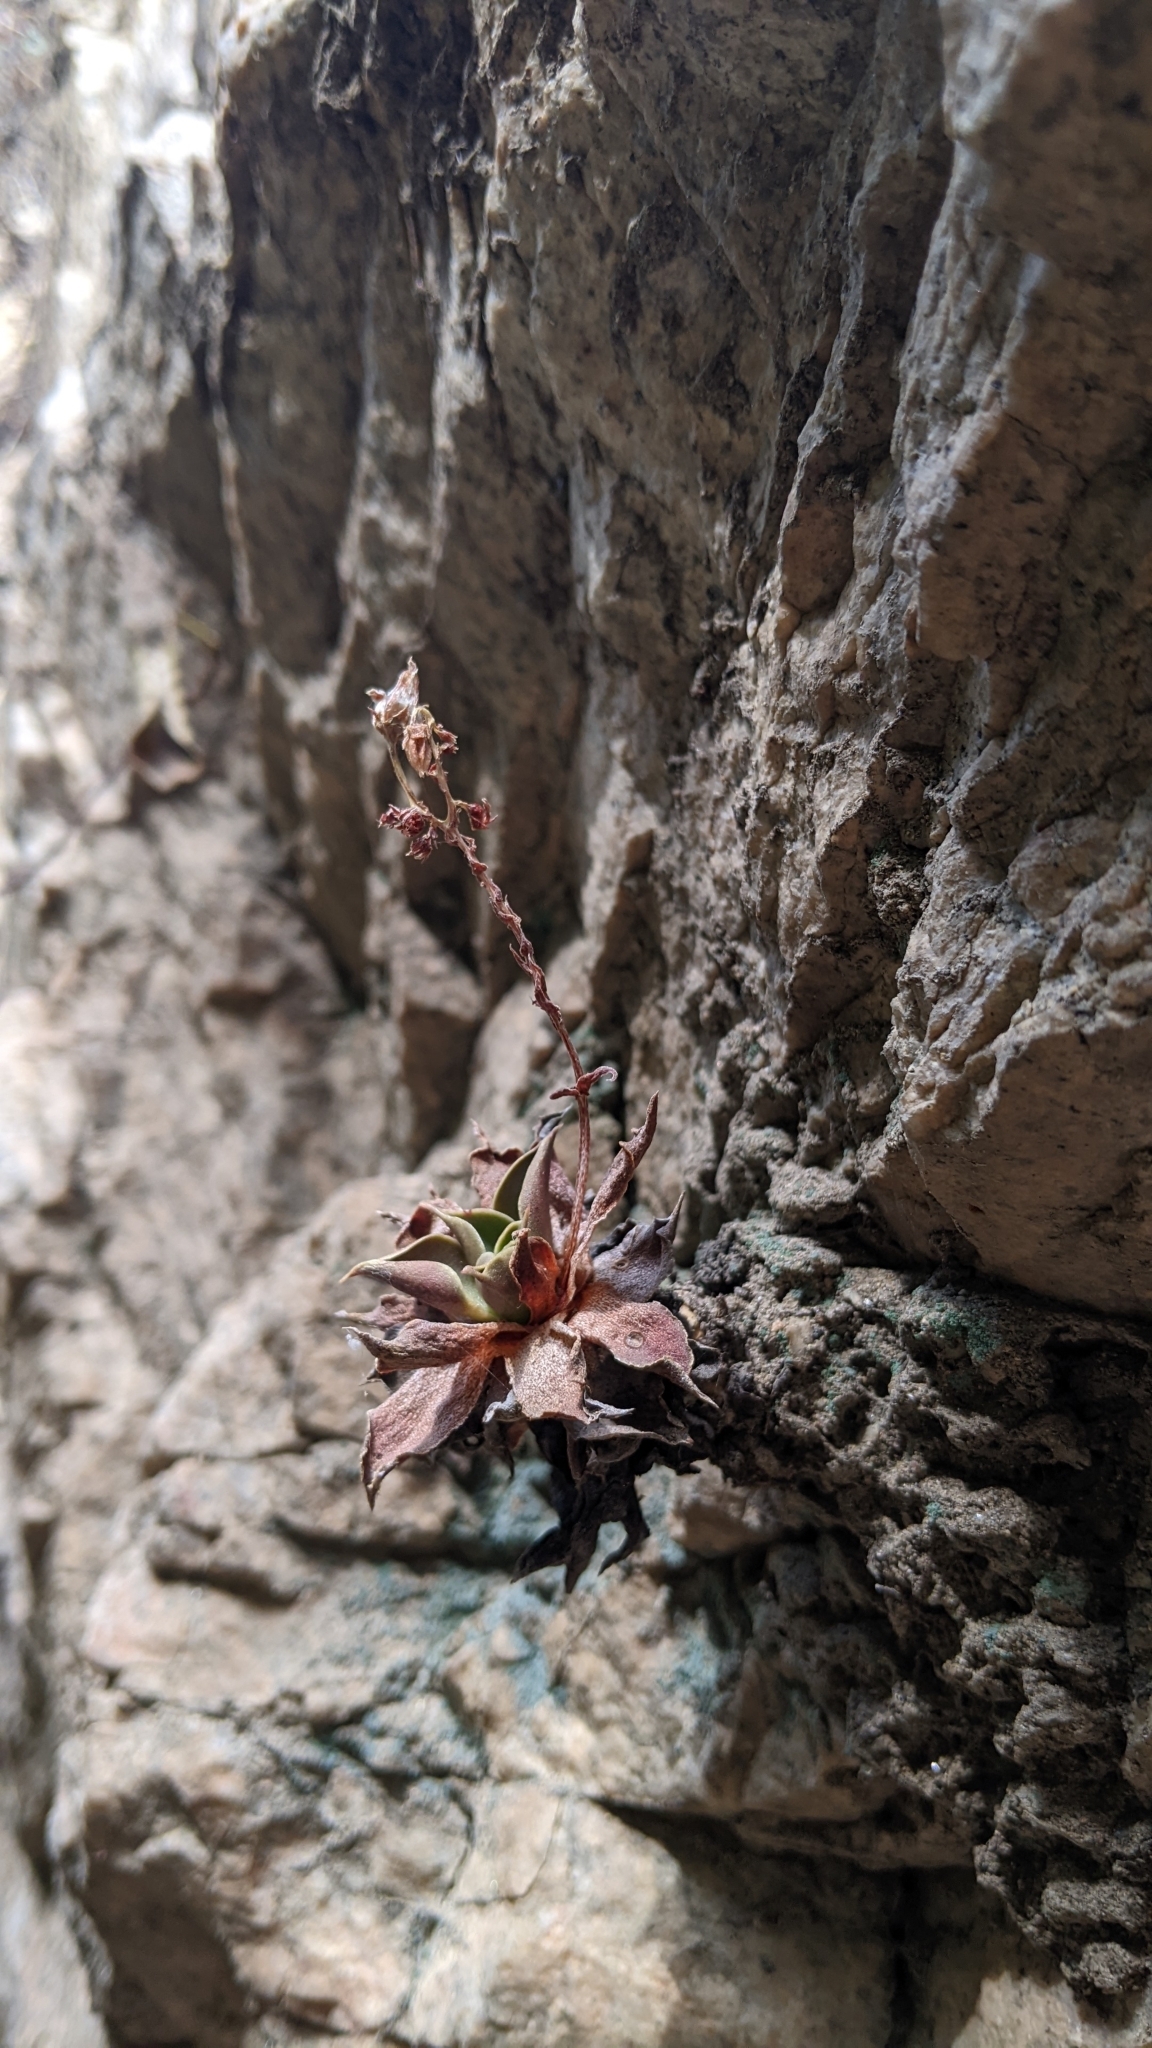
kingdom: Plantae
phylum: Tracheophyta
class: Magnoliopsida
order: Saxifragales
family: Crassulaceae
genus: Dudleya
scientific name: Dudleya lanceolata
